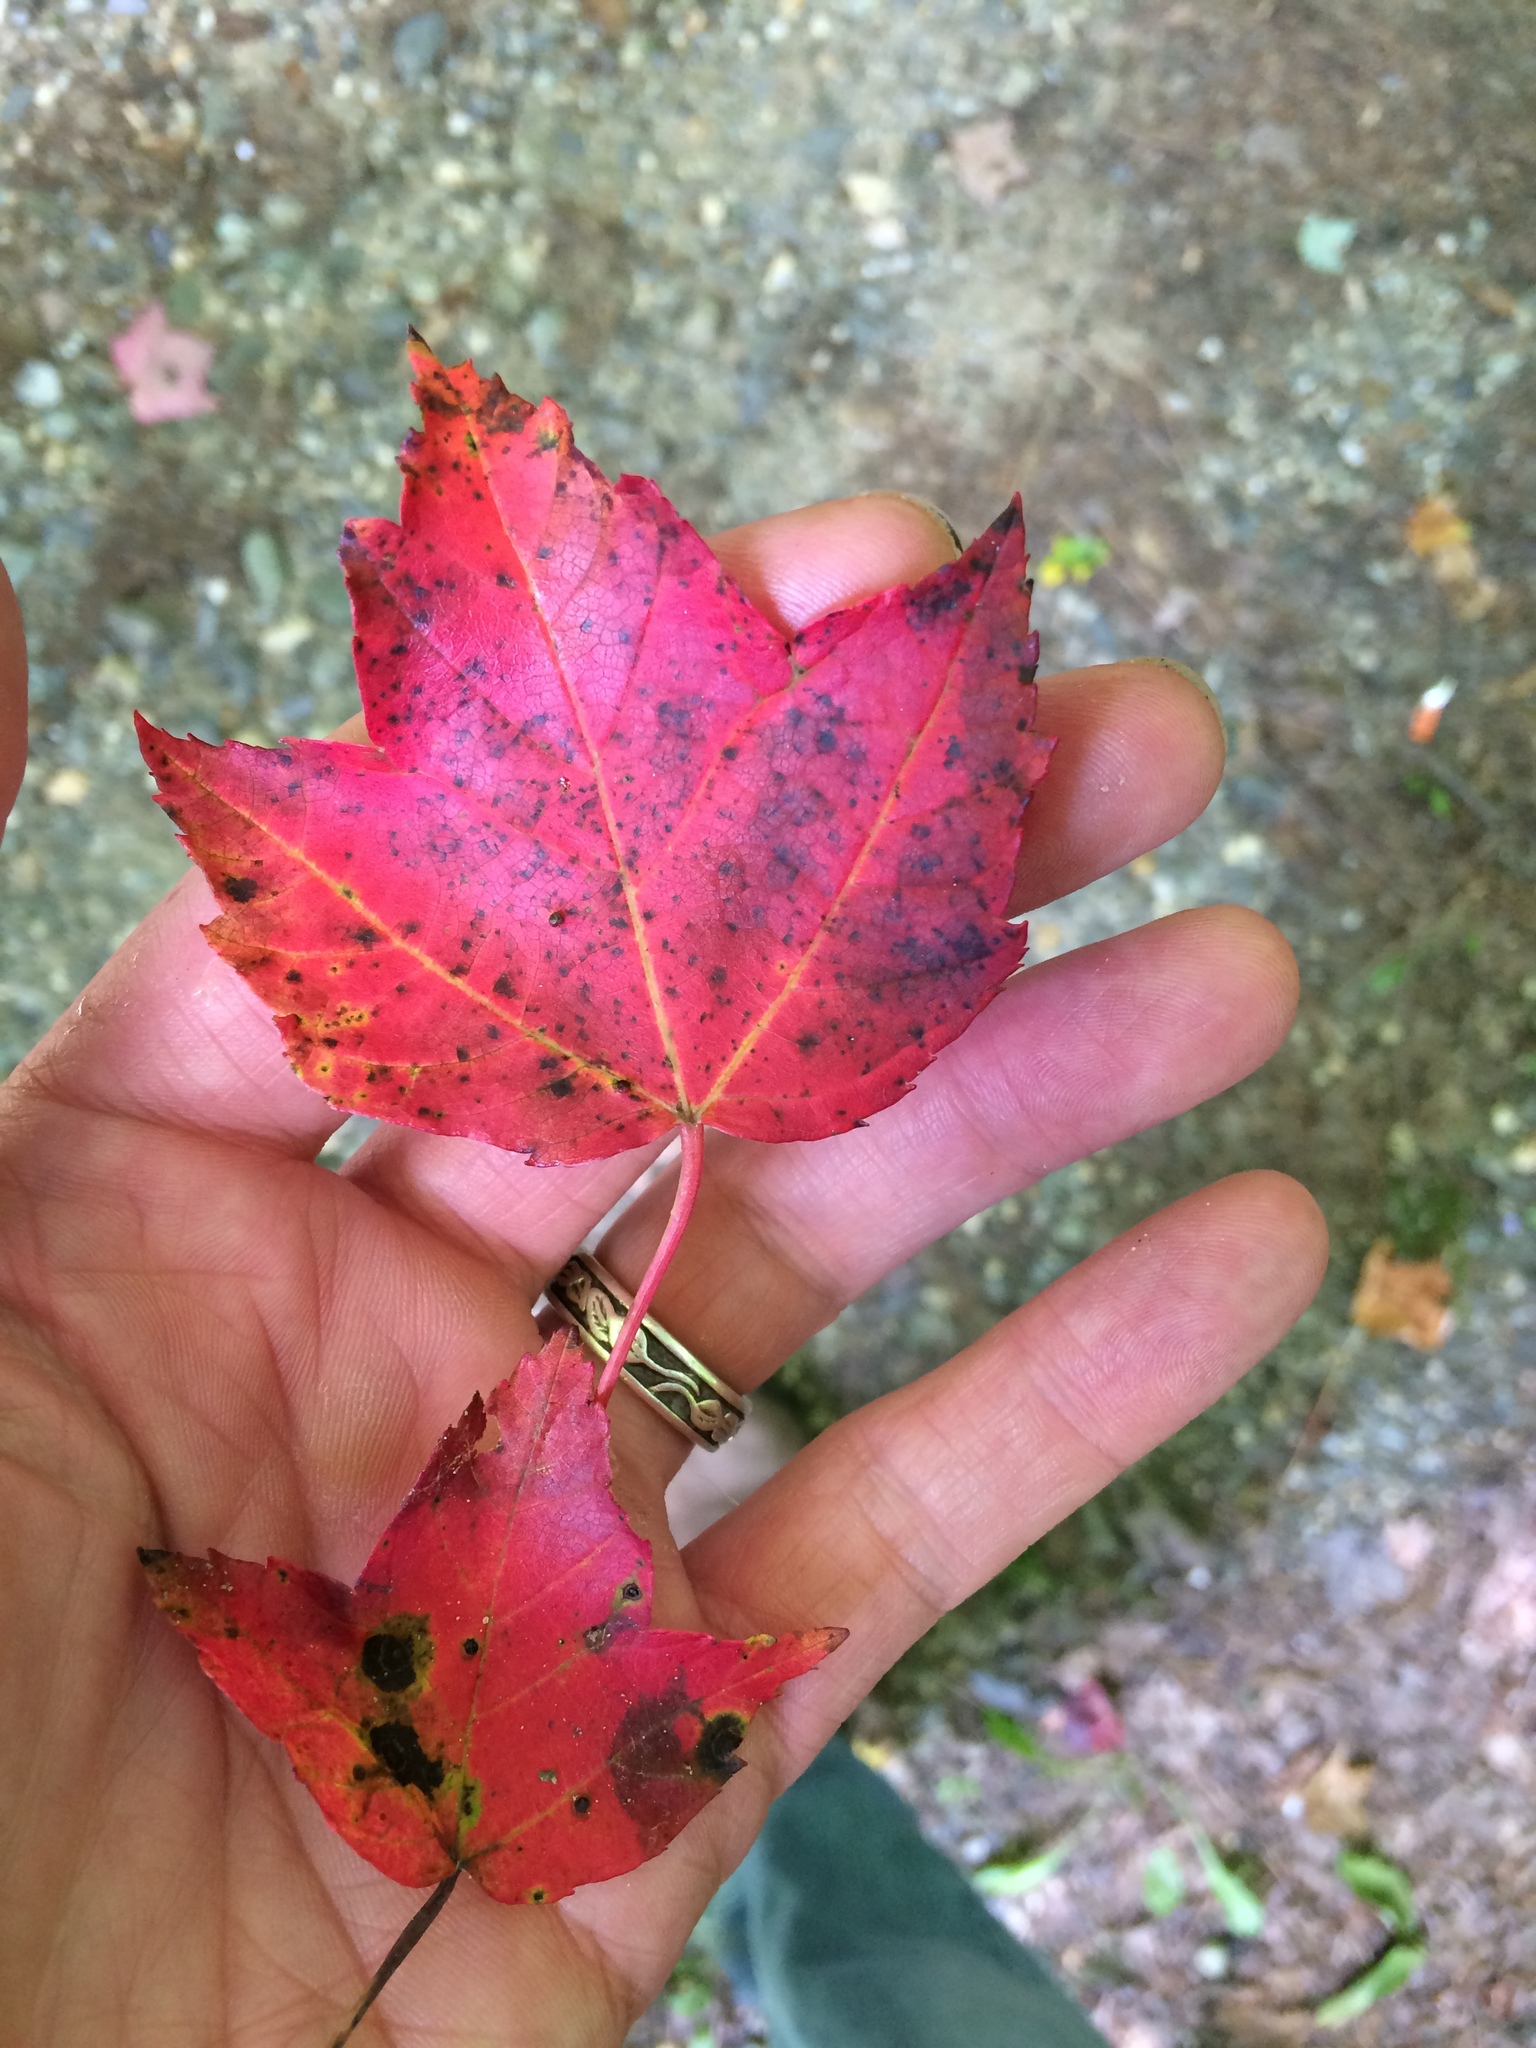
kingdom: Plantae
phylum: Tracheophyta
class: Magnoliopsida
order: Sapindales
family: Sapindaceae
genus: Acer
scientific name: Acer rubrum
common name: Red maple
